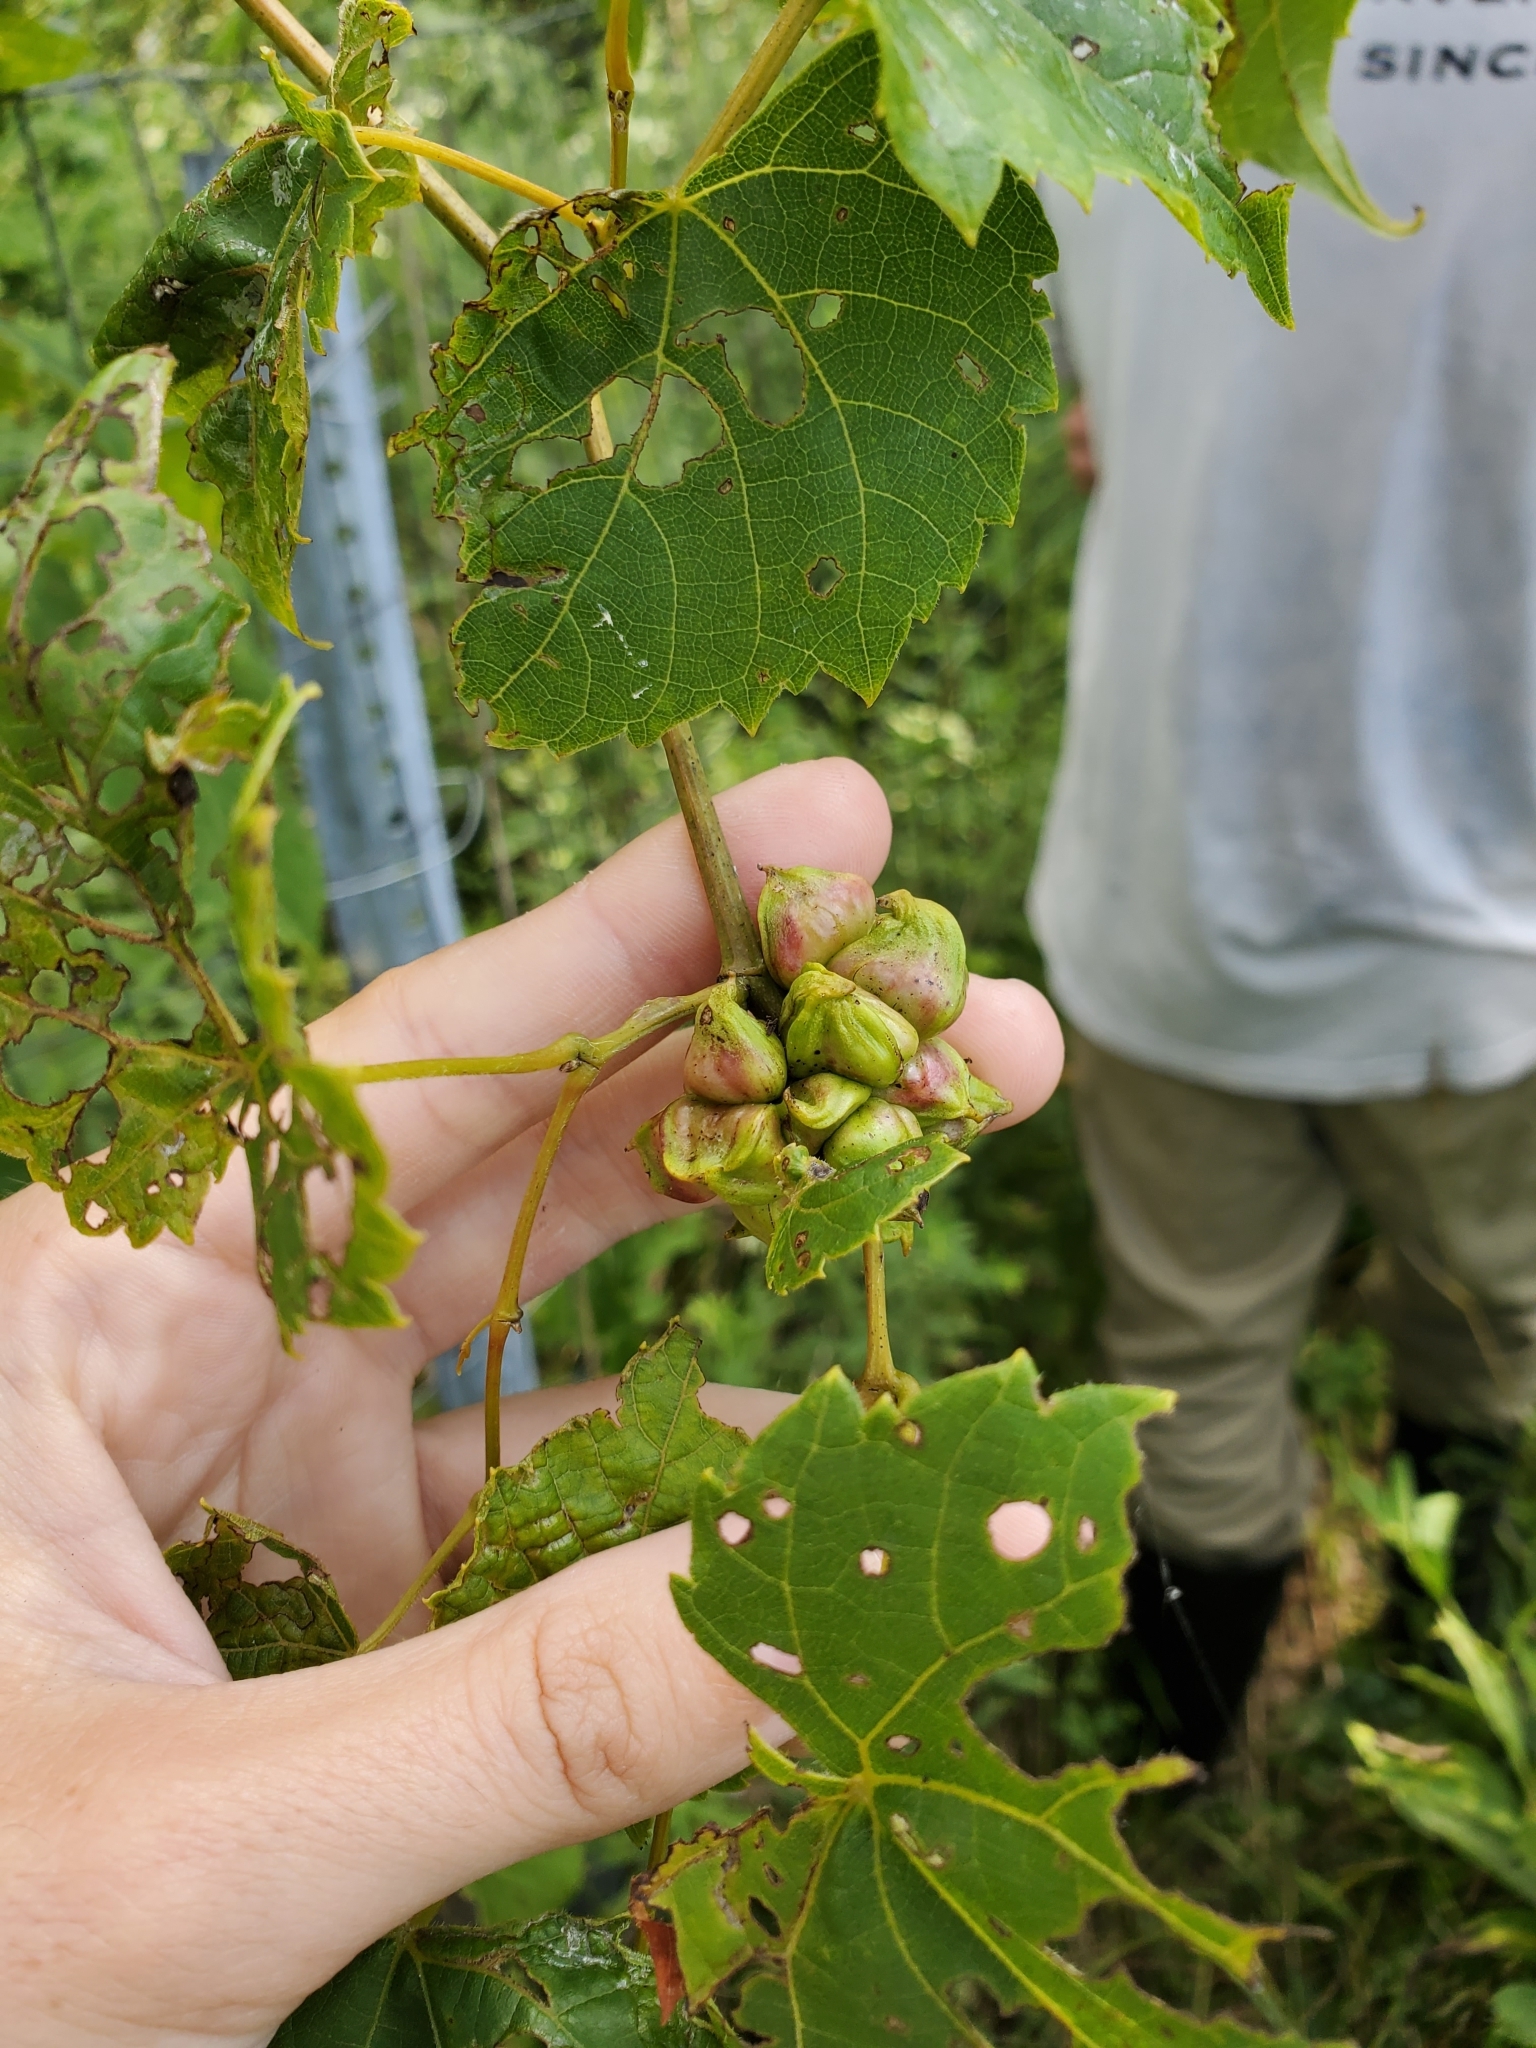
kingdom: Animalia
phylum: Arthropoda
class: Insecta
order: Diptera
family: Cecidomyiidae
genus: Ampelomyia
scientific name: Ampelomyia vitiscoryloides
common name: Grape filbert gall
